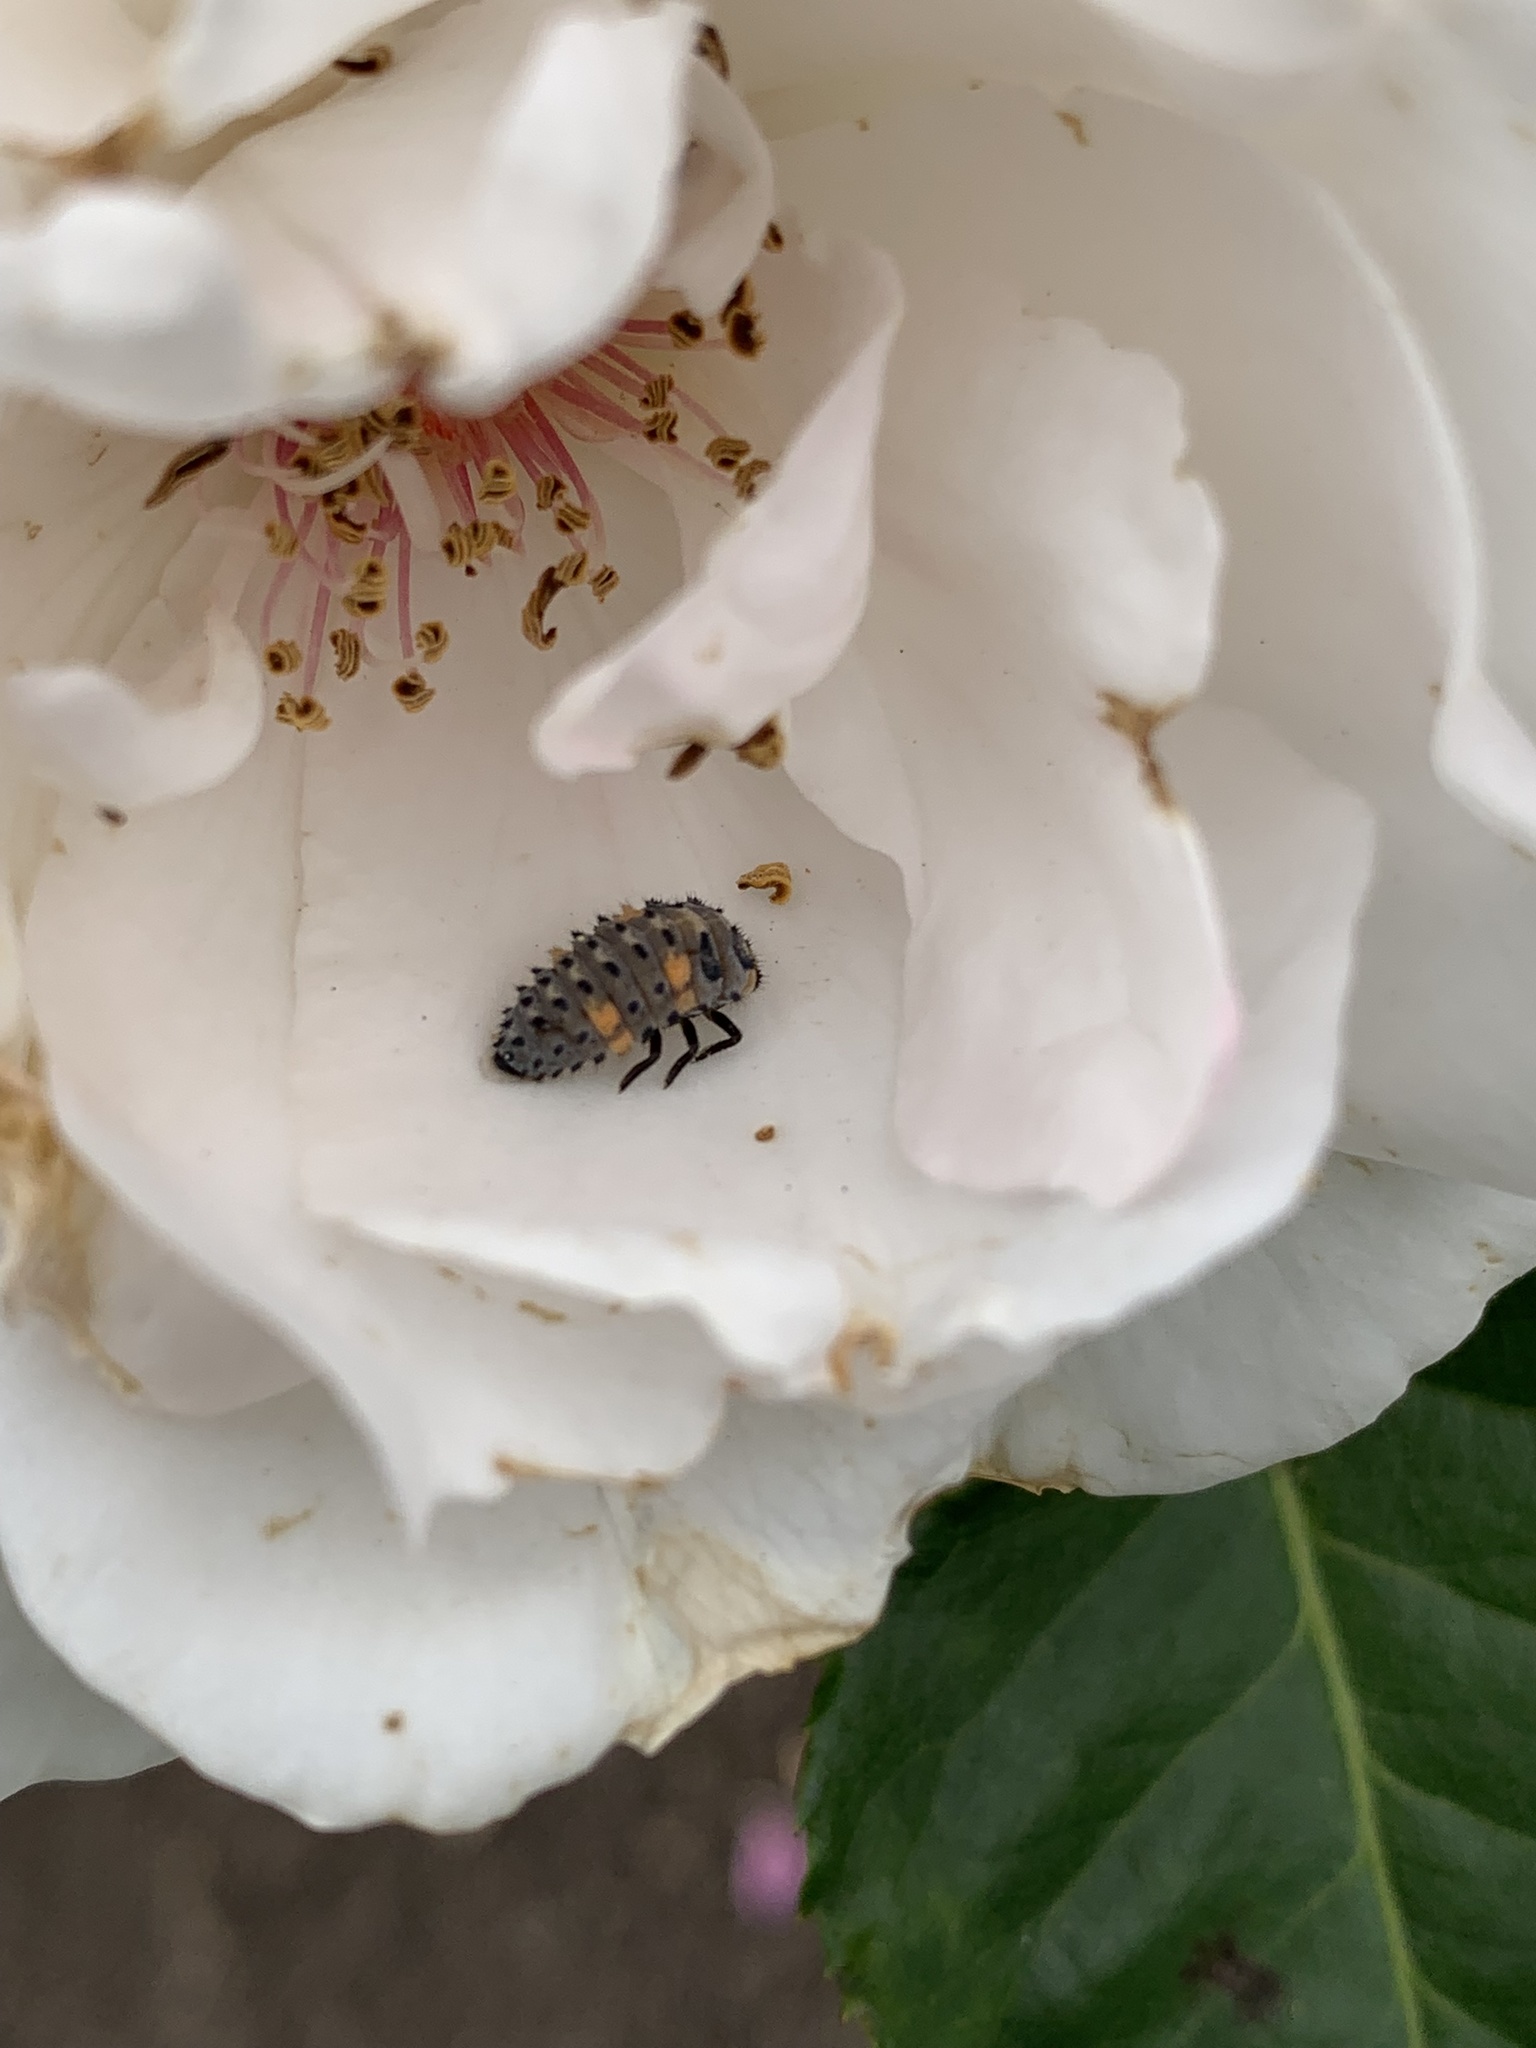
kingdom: Animalia
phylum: Arthropoda
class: Insecta
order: Coleoptera
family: Coccinellidae
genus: Coccinella
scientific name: Coccinella septempunctata
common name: Sevenspotted lady beetle
